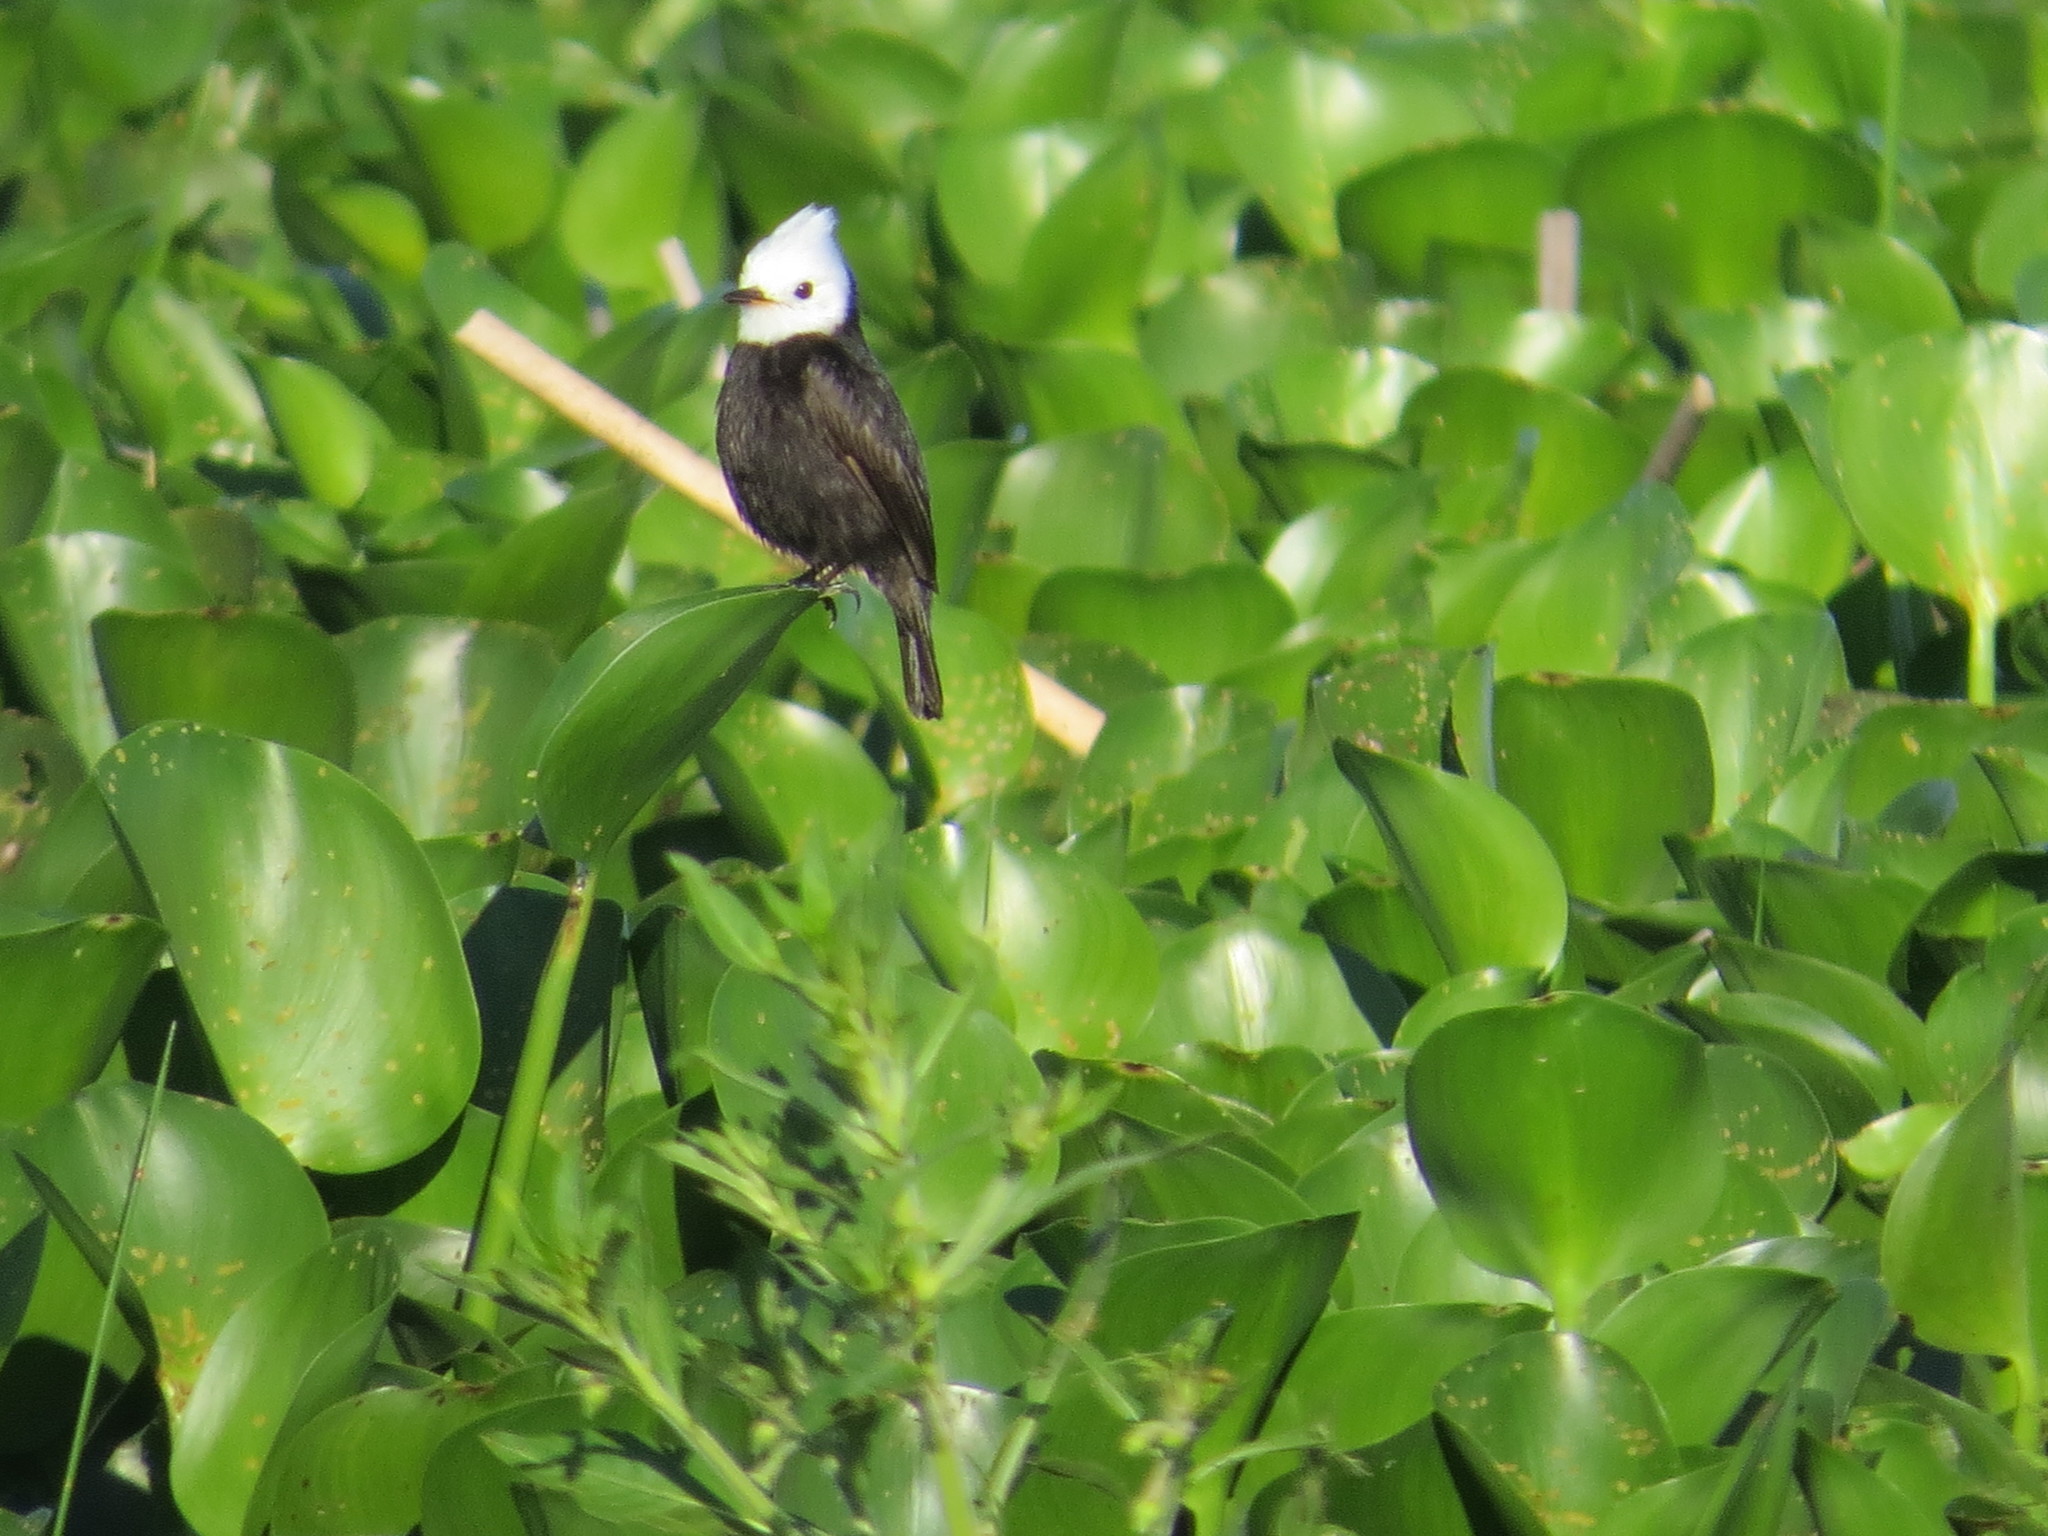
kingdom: Animalia
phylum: Chordata
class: Aves
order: Passeriformes
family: Tyrannidae
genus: Arundinicola
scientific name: Arundinicola leucocephala
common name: White-headed marsh tyrant
